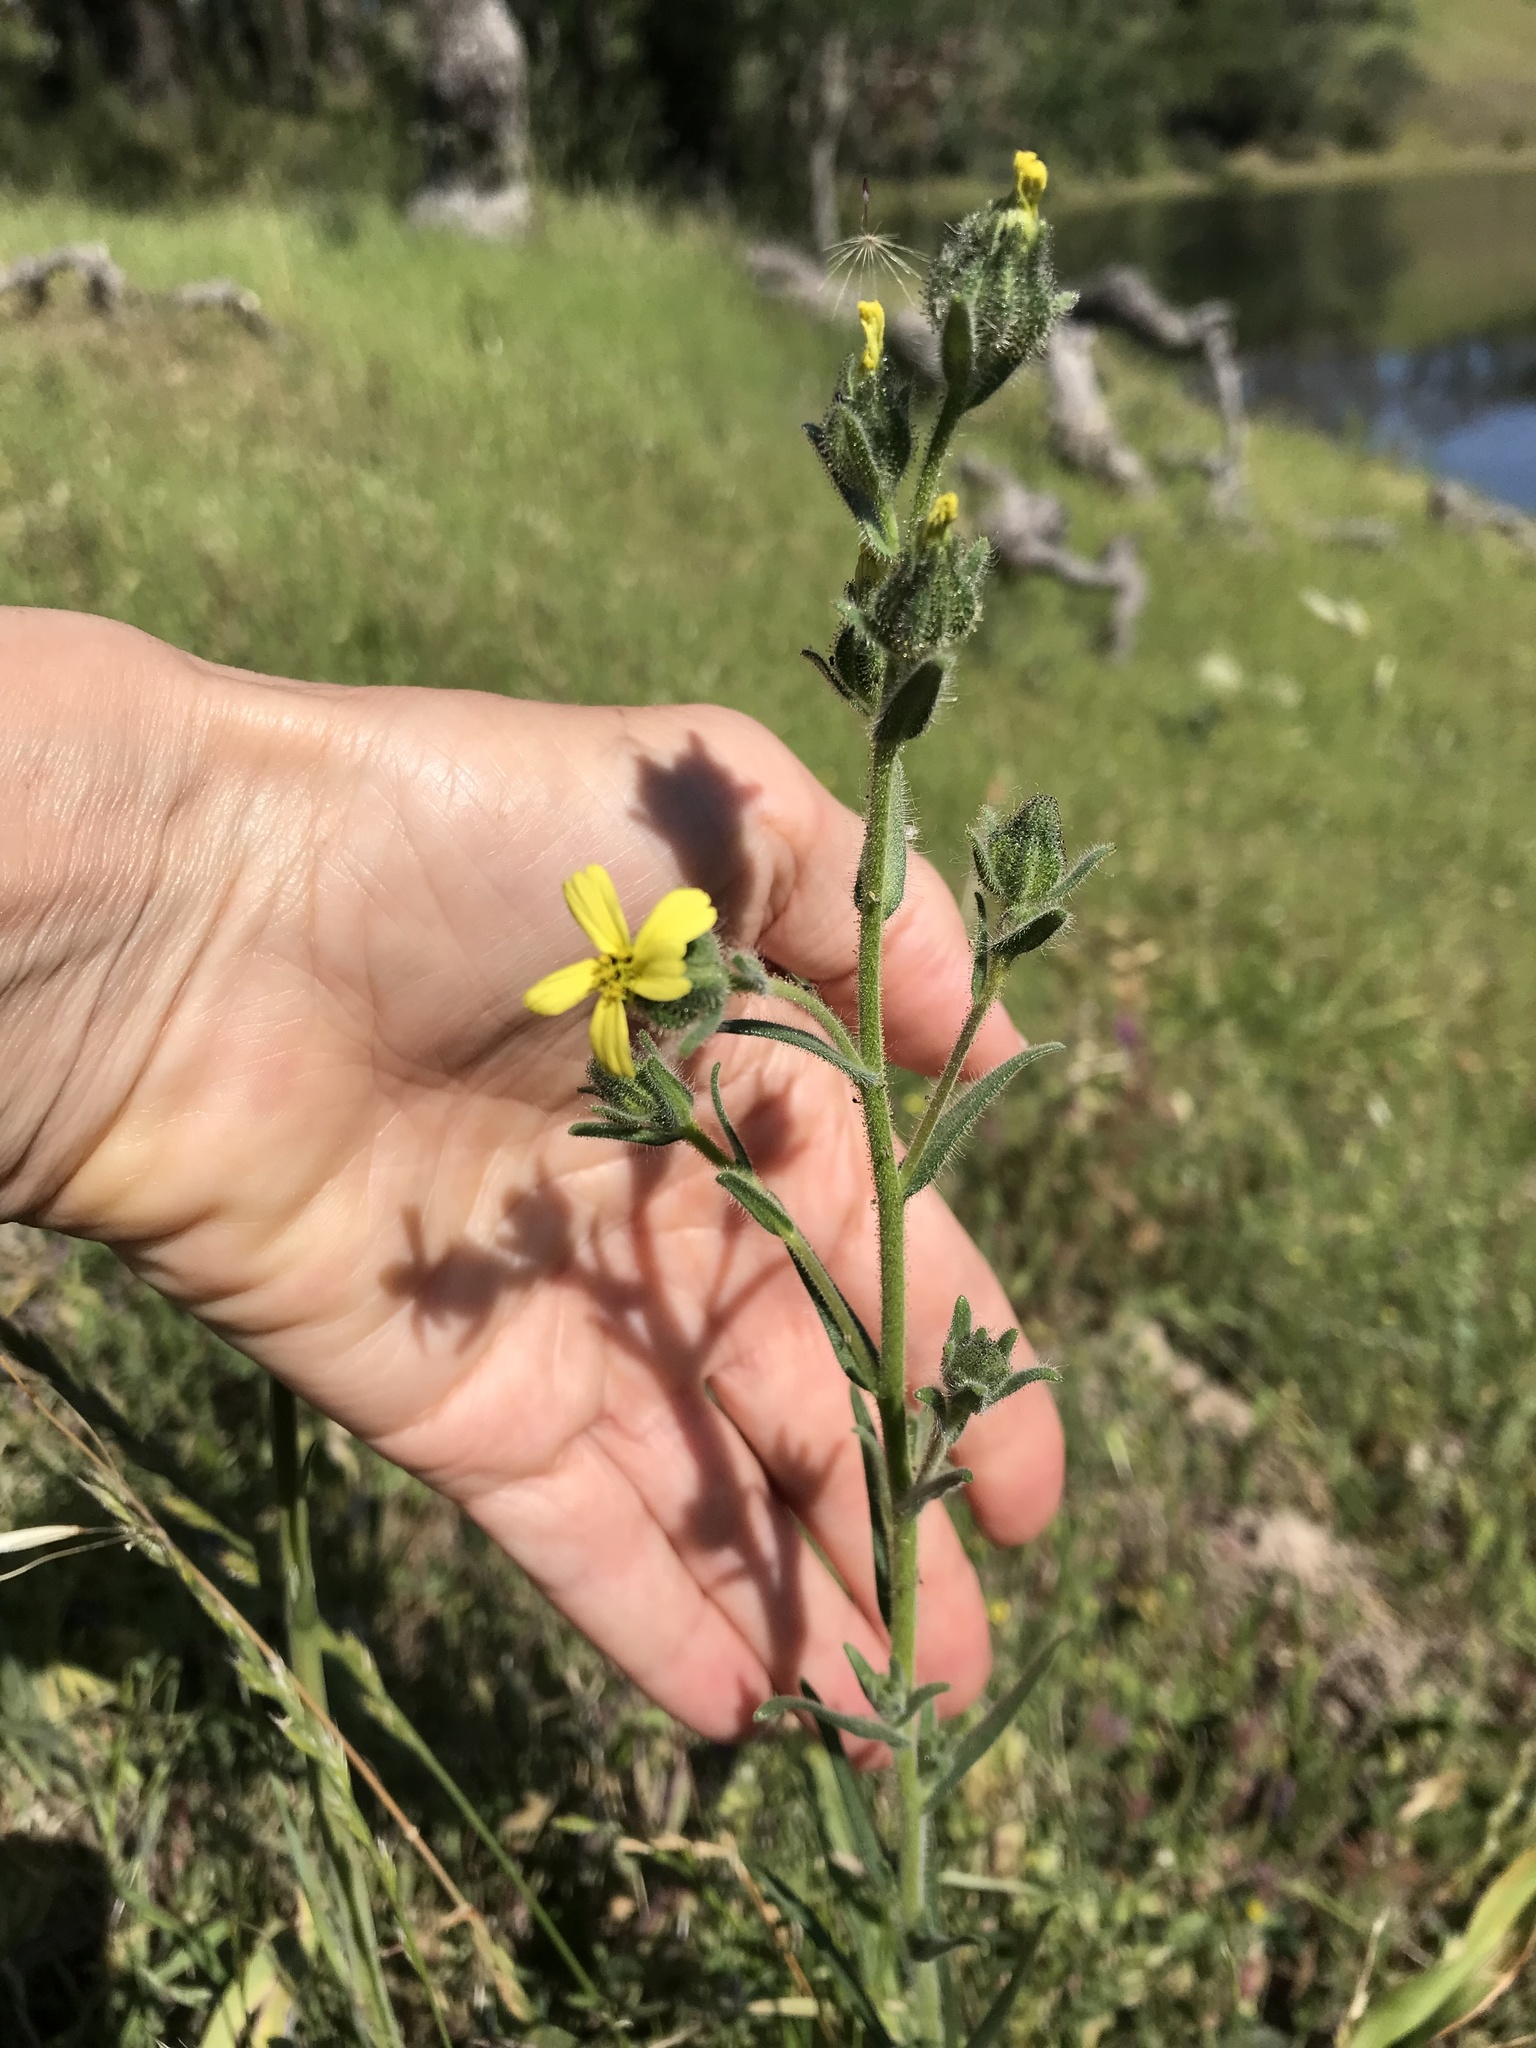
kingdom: Plantae
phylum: Tracheophyta
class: Magnoliopsida
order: Asterales
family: Asteraceae
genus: Madia
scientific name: Madia gracilis
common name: Grassy tarweed
